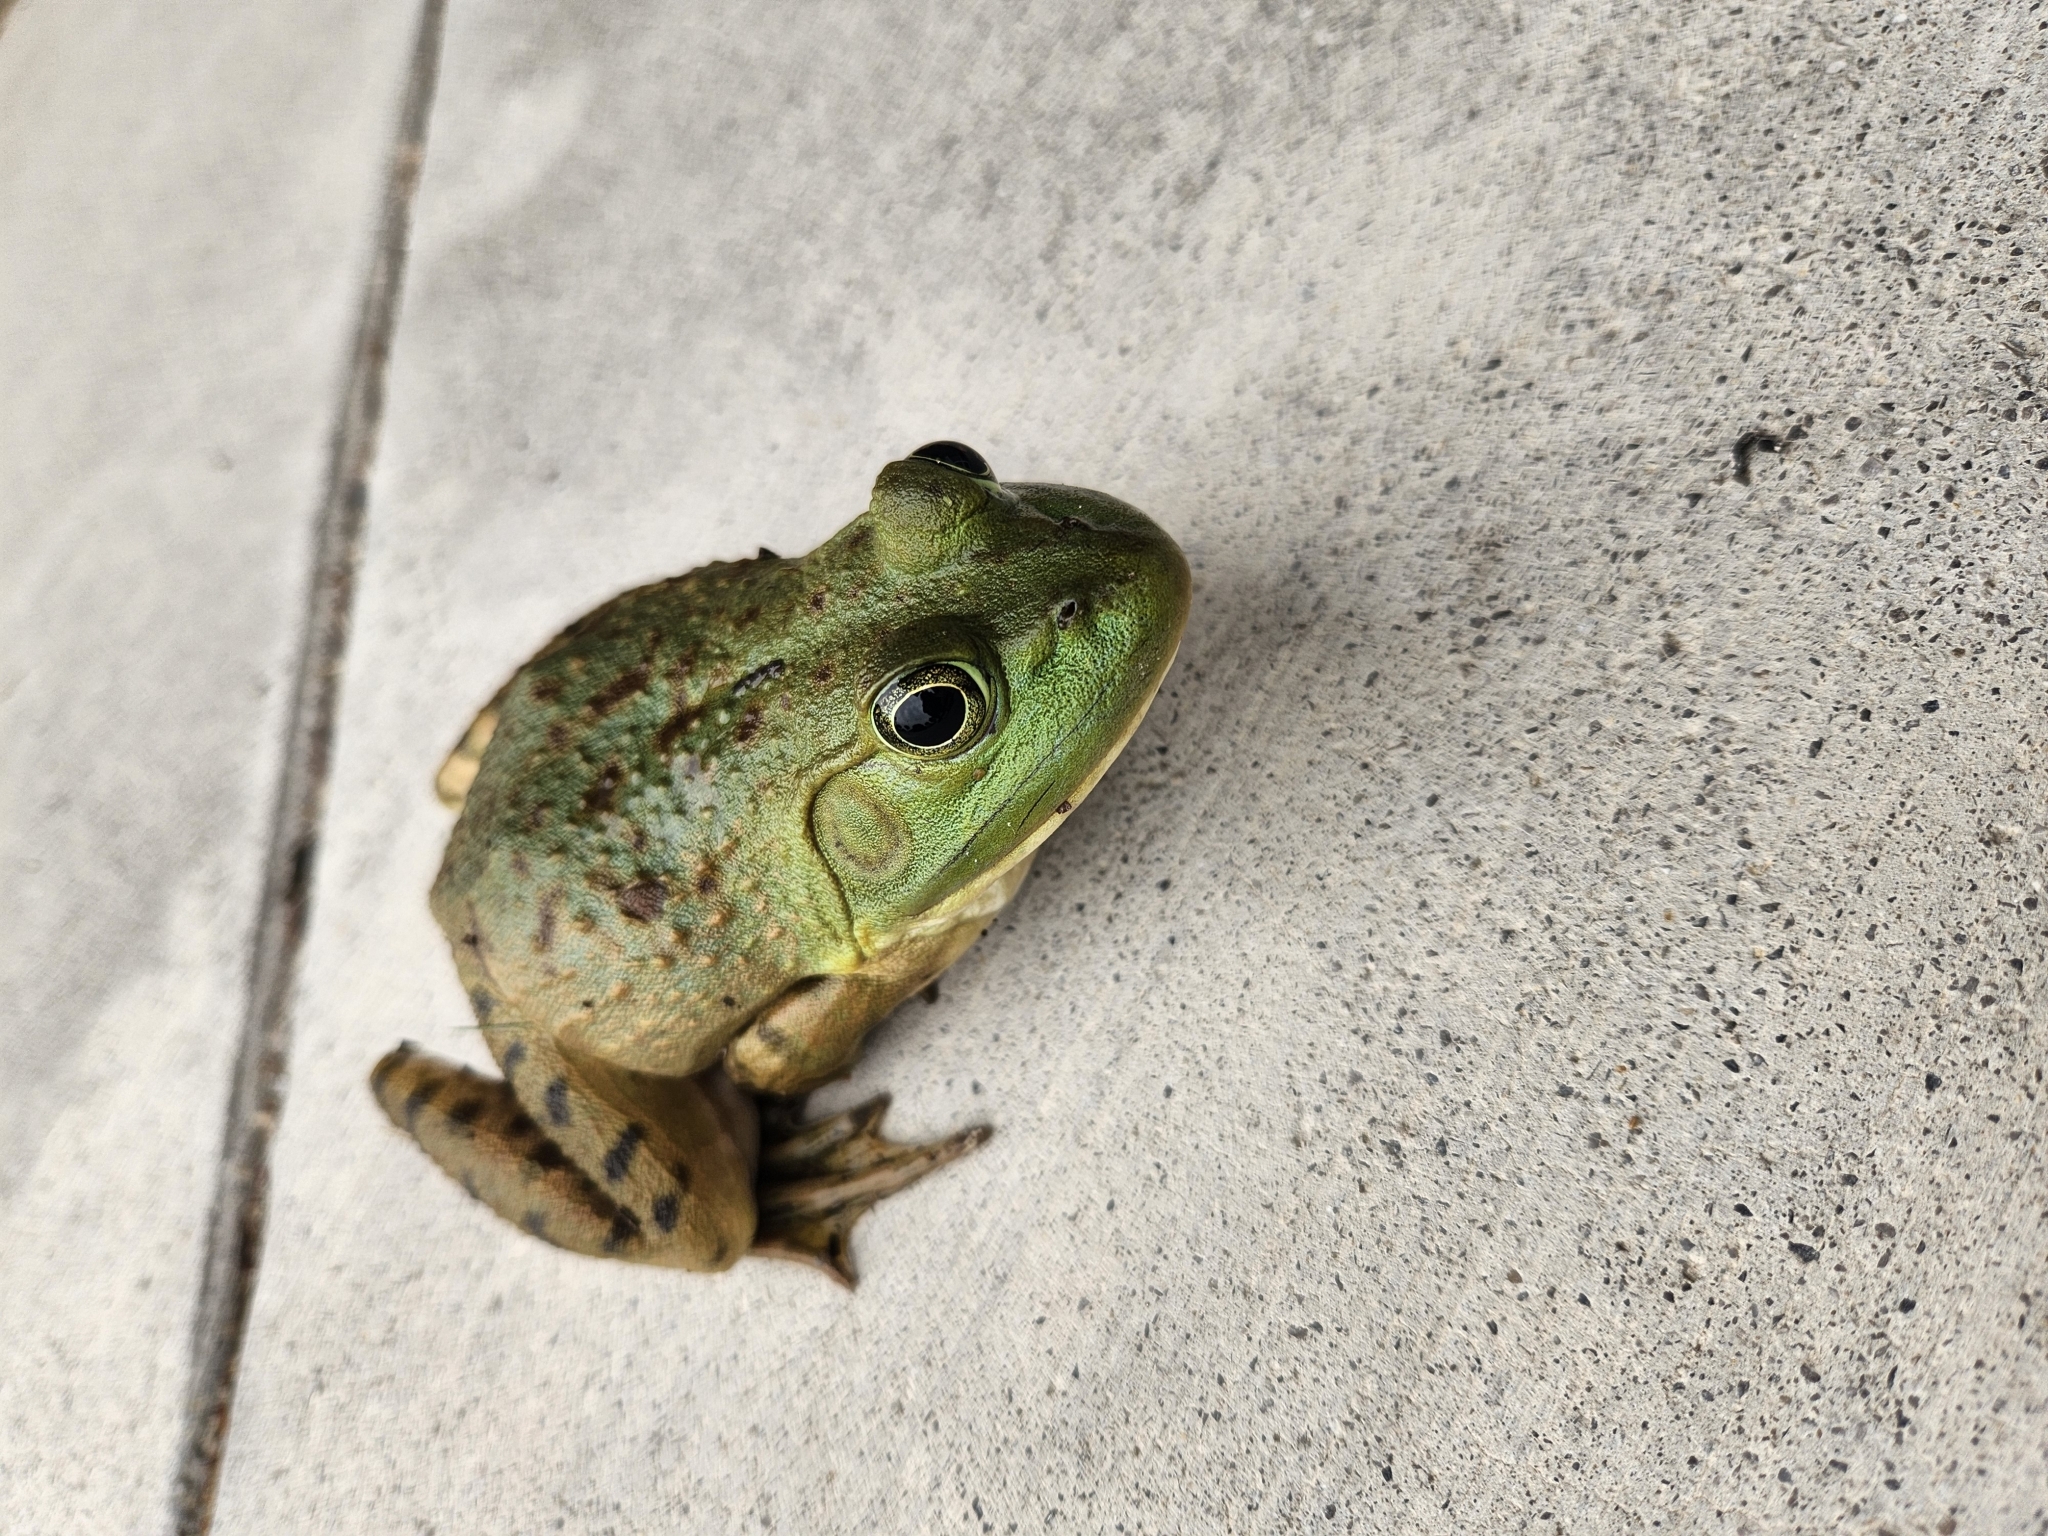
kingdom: Animalia
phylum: Chordata
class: Amphibia
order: Anura
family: Ranidae
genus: Lithobates
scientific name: Lithobates catesbeianus
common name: American bullfrog
